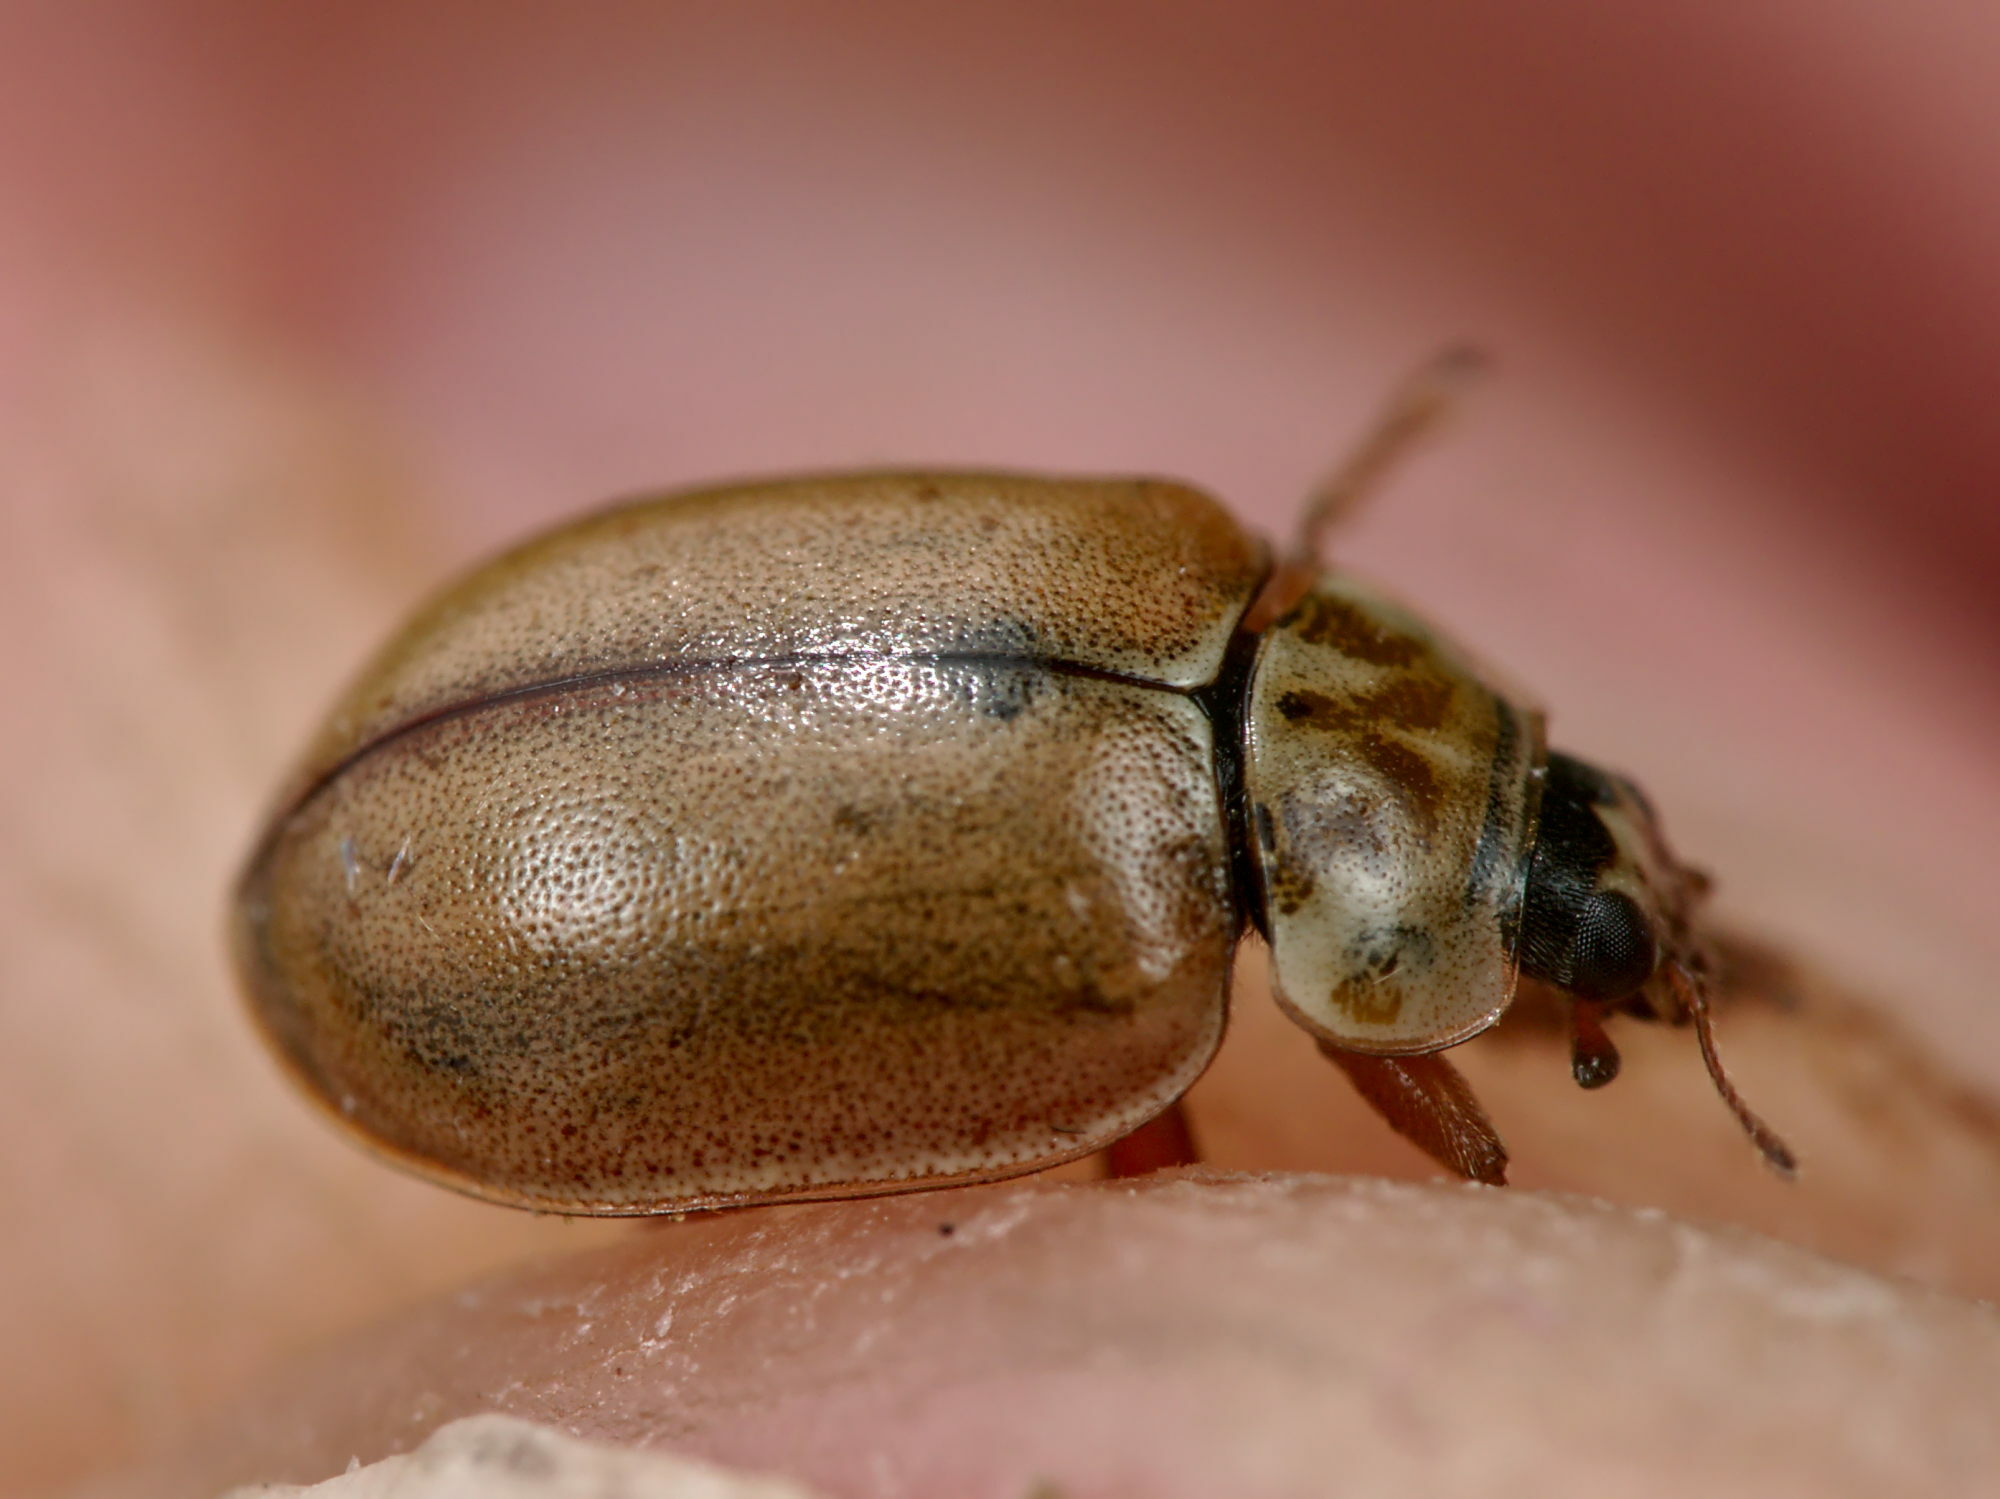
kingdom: Animalia
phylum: Arthropoda
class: Insecta
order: Coleoptera
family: Coccinellidae
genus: Aphidecta
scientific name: Aphidecta obliterata
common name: Larch ladybird
